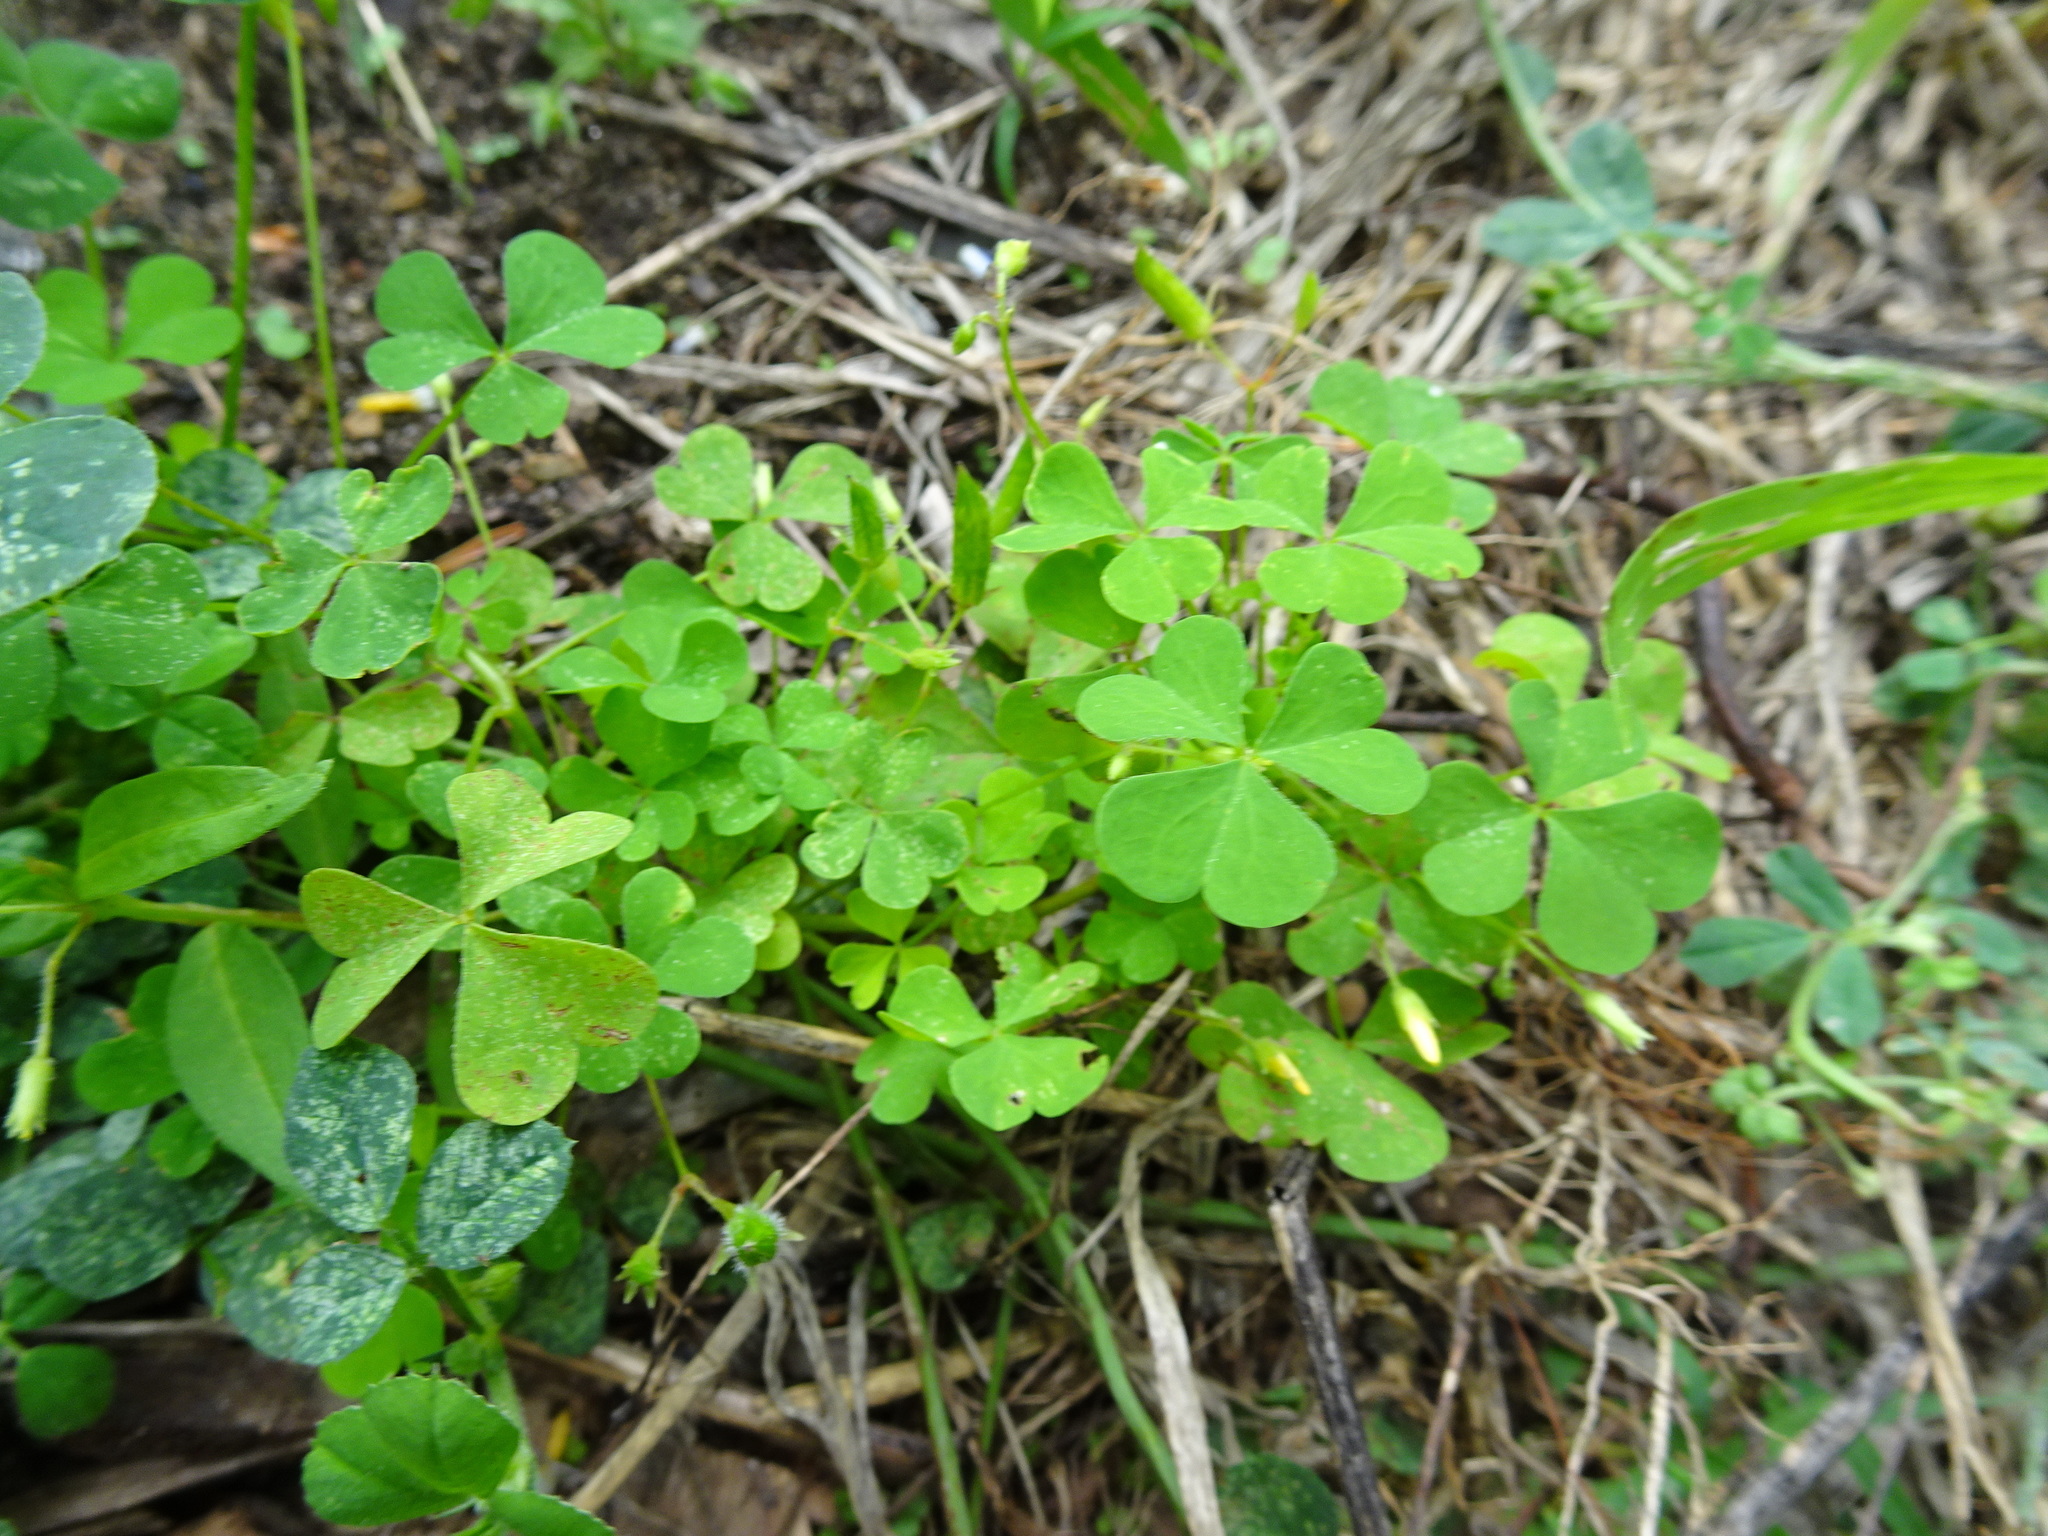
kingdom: Plantae
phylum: Tracheophyta
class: Magnoliopsida
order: Oxalidales
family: Oxalidaceae
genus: Oxalis
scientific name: Oxalis stricta
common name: Upright yellow-sorrel
